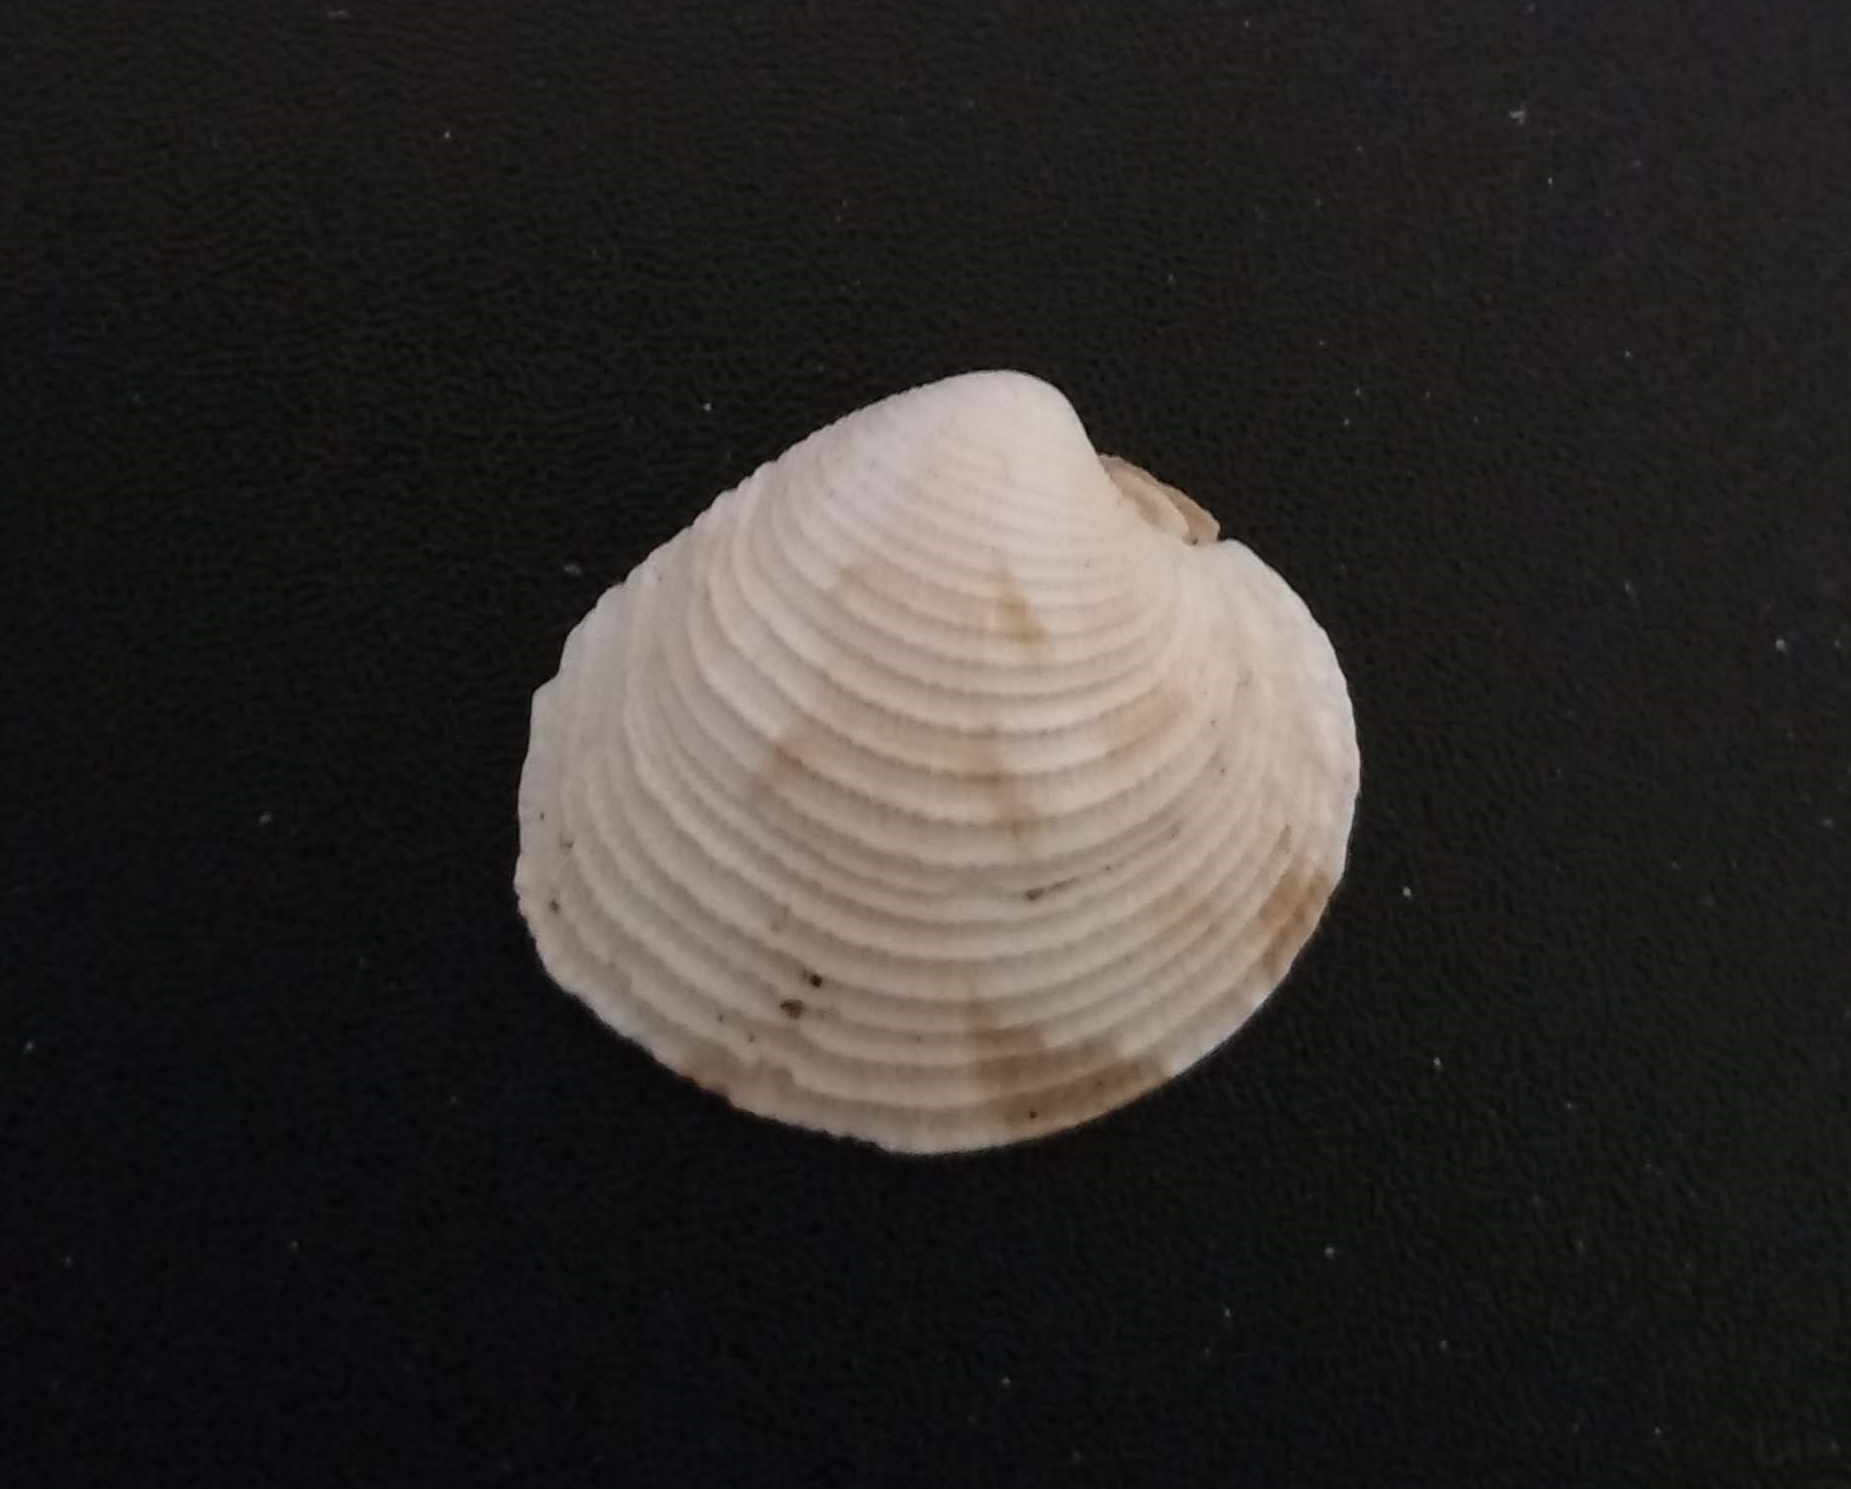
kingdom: Animalia
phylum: Mollusca
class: Bivalvia
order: Venerida
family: Veneridae
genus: Globivenus
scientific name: Globivenus rigida
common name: Rigid venus
